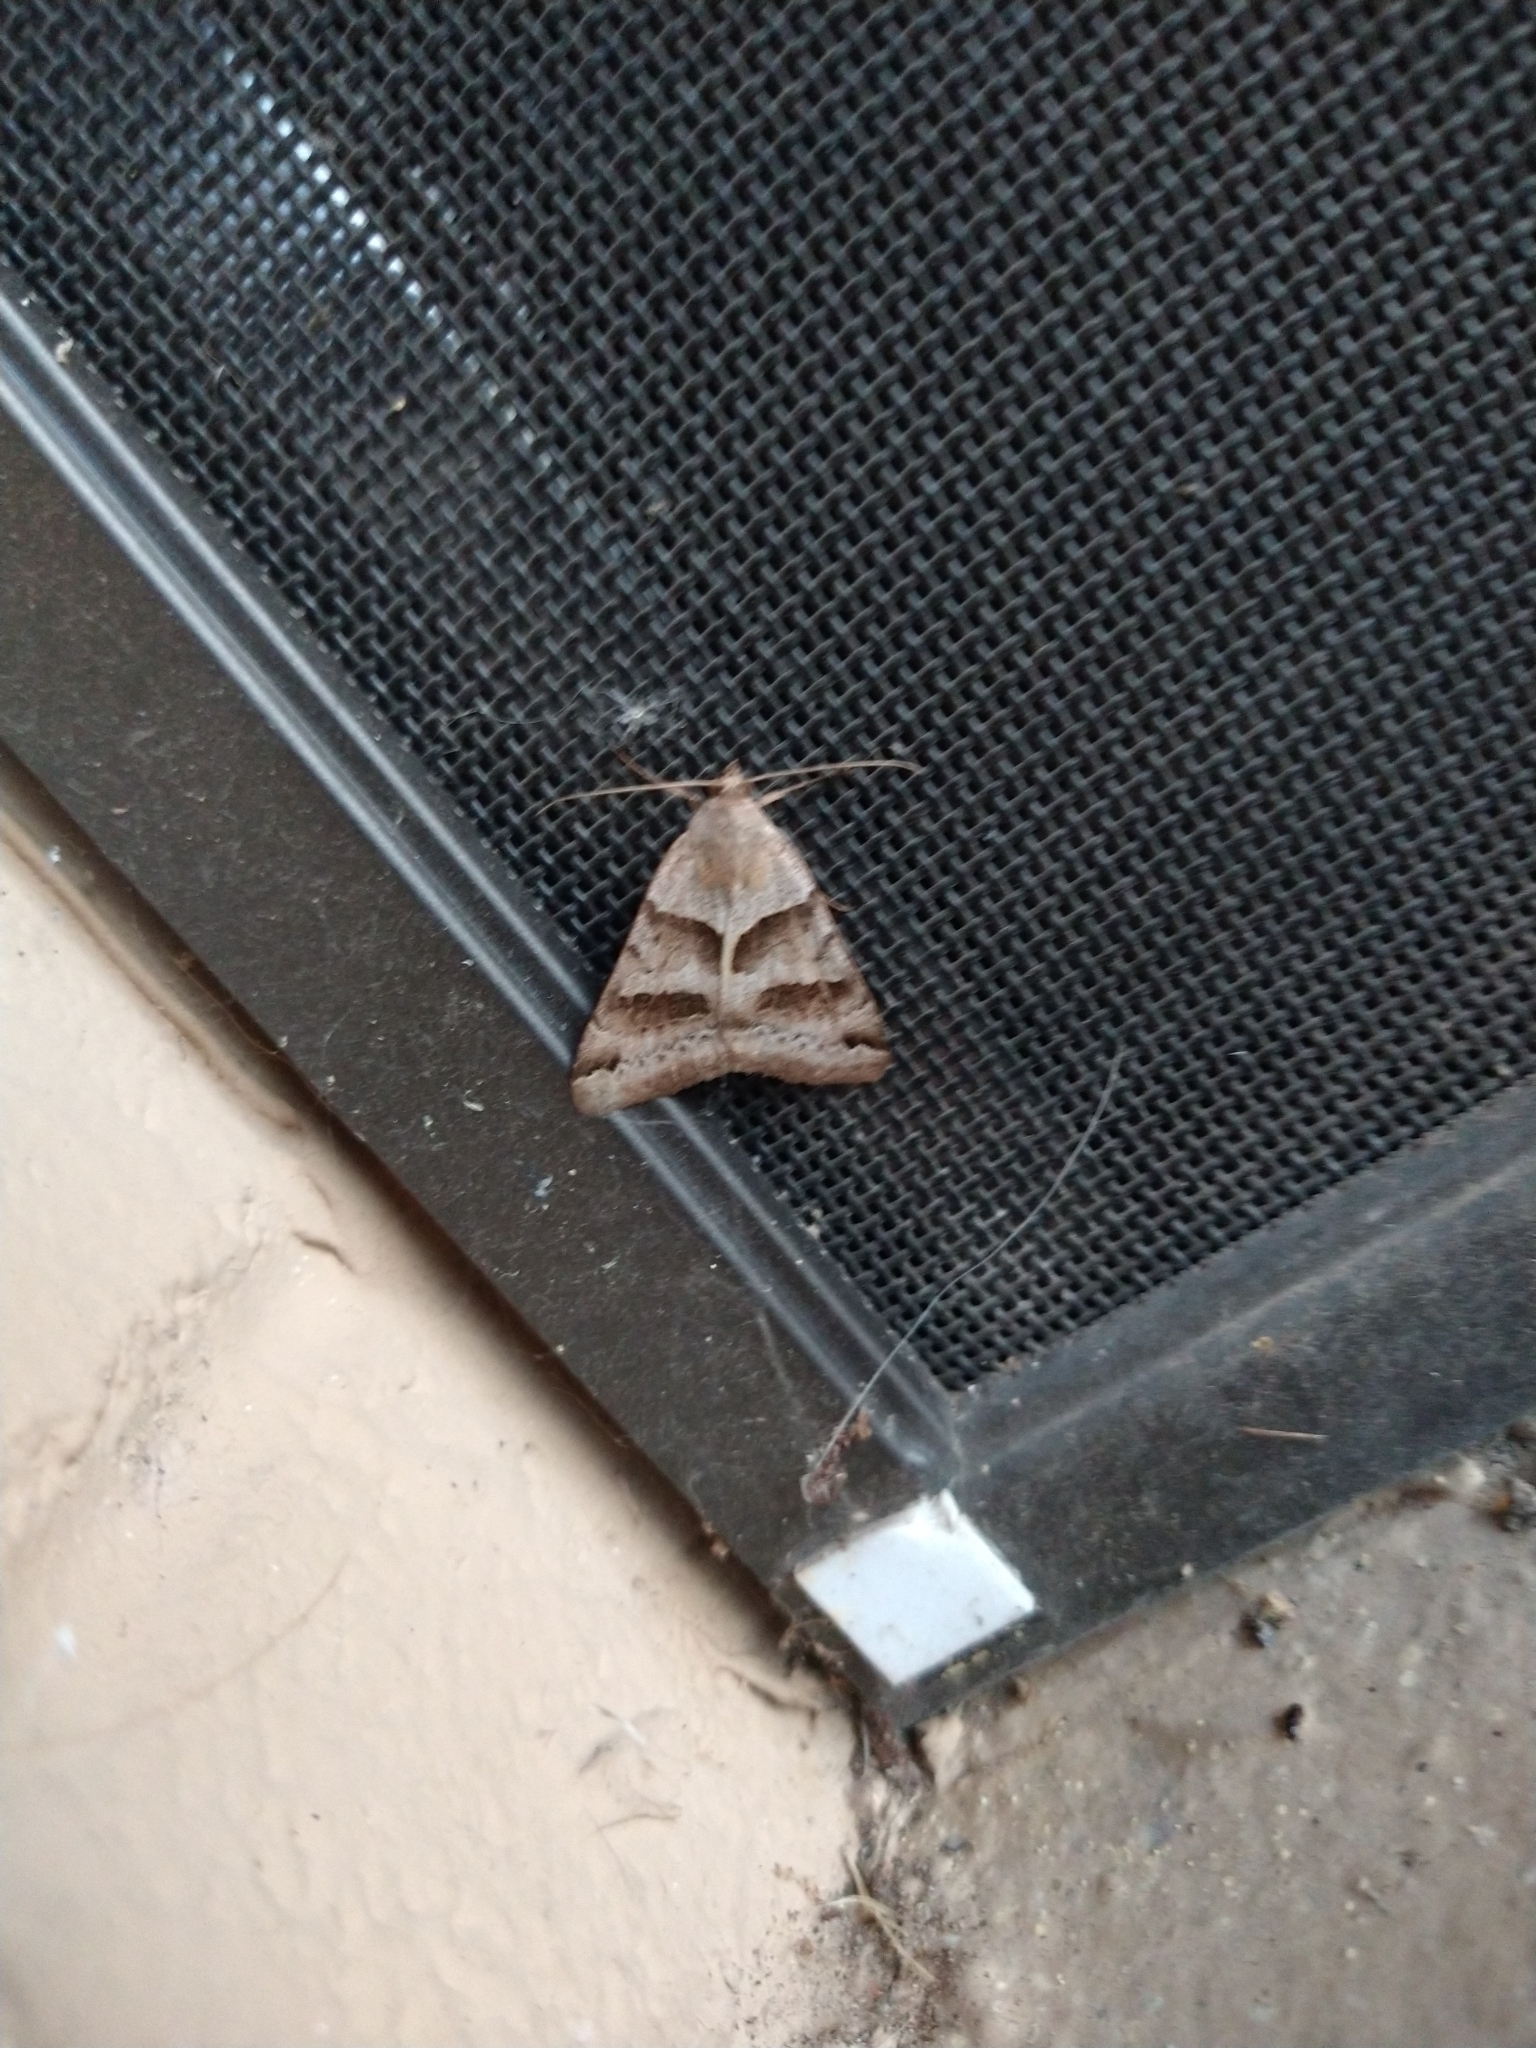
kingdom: Animalia
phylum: Arthropoda
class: Insecta
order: Lepidoptera
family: Erebidae
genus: Caenurgina
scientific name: Caenurgina erechtea
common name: Forage looper moth
